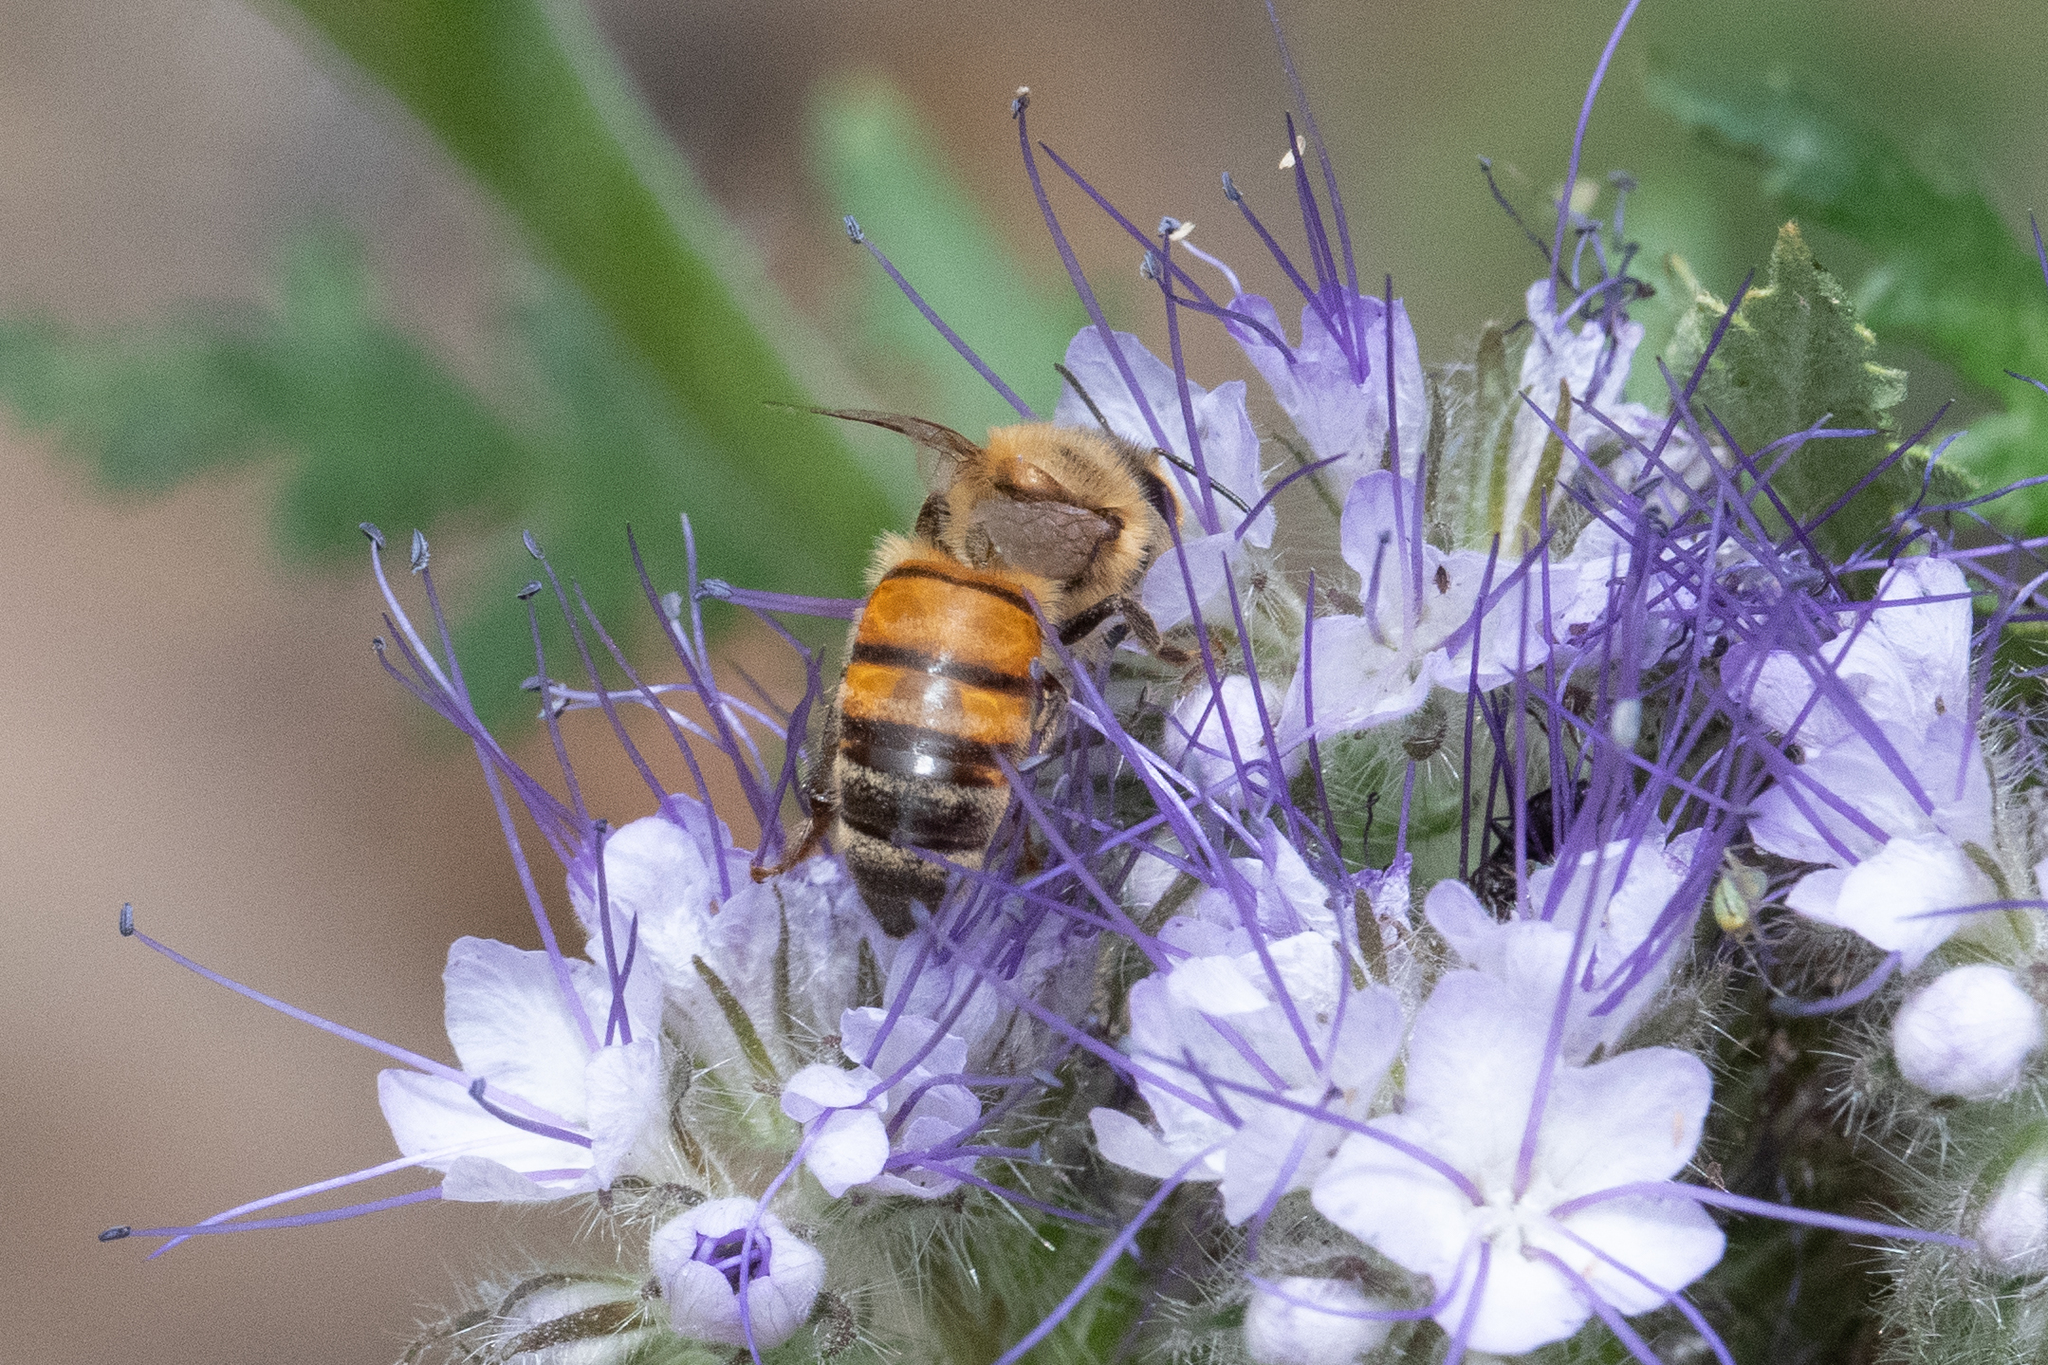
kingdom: Animalia
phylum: Arthropoda
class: Insecta
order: Hymenoptera
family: Apidae
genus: Apis
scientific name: Apis mellifera
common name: Honey bee
